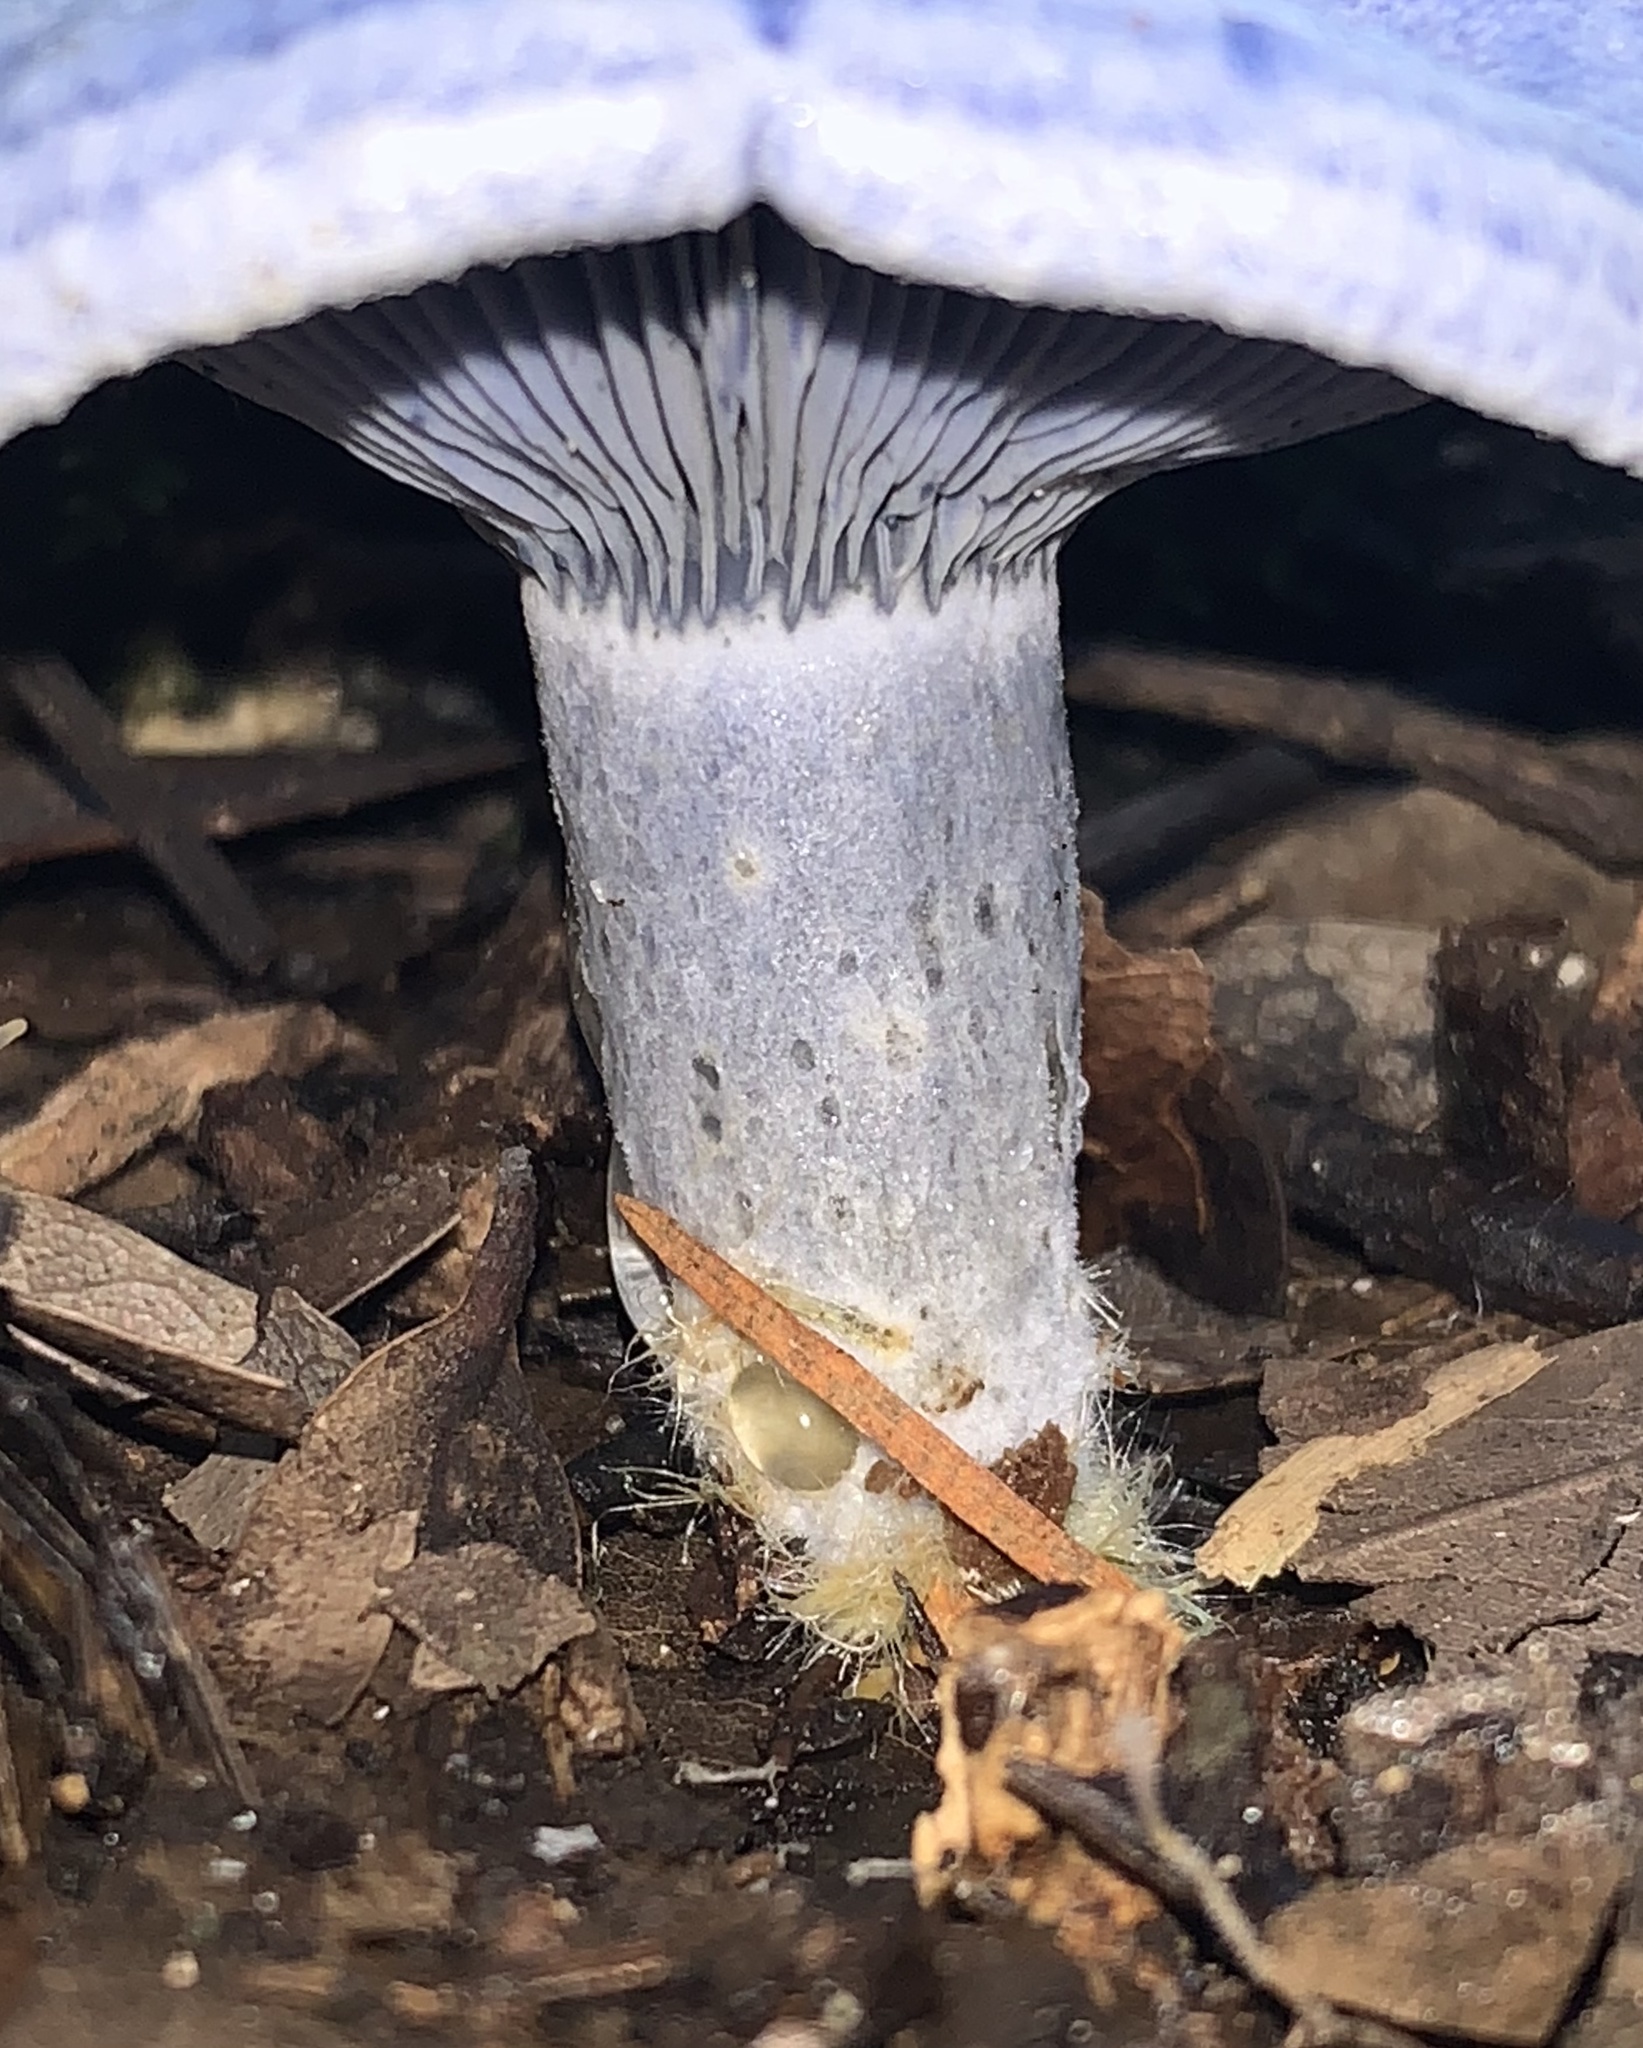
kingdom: Fungi
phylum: Basidiomycota
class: Agaricomycetes
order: Russulales
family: Russulaceae
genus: Lactarius
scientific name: Lactarius indigo
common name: Indigo milk cap
